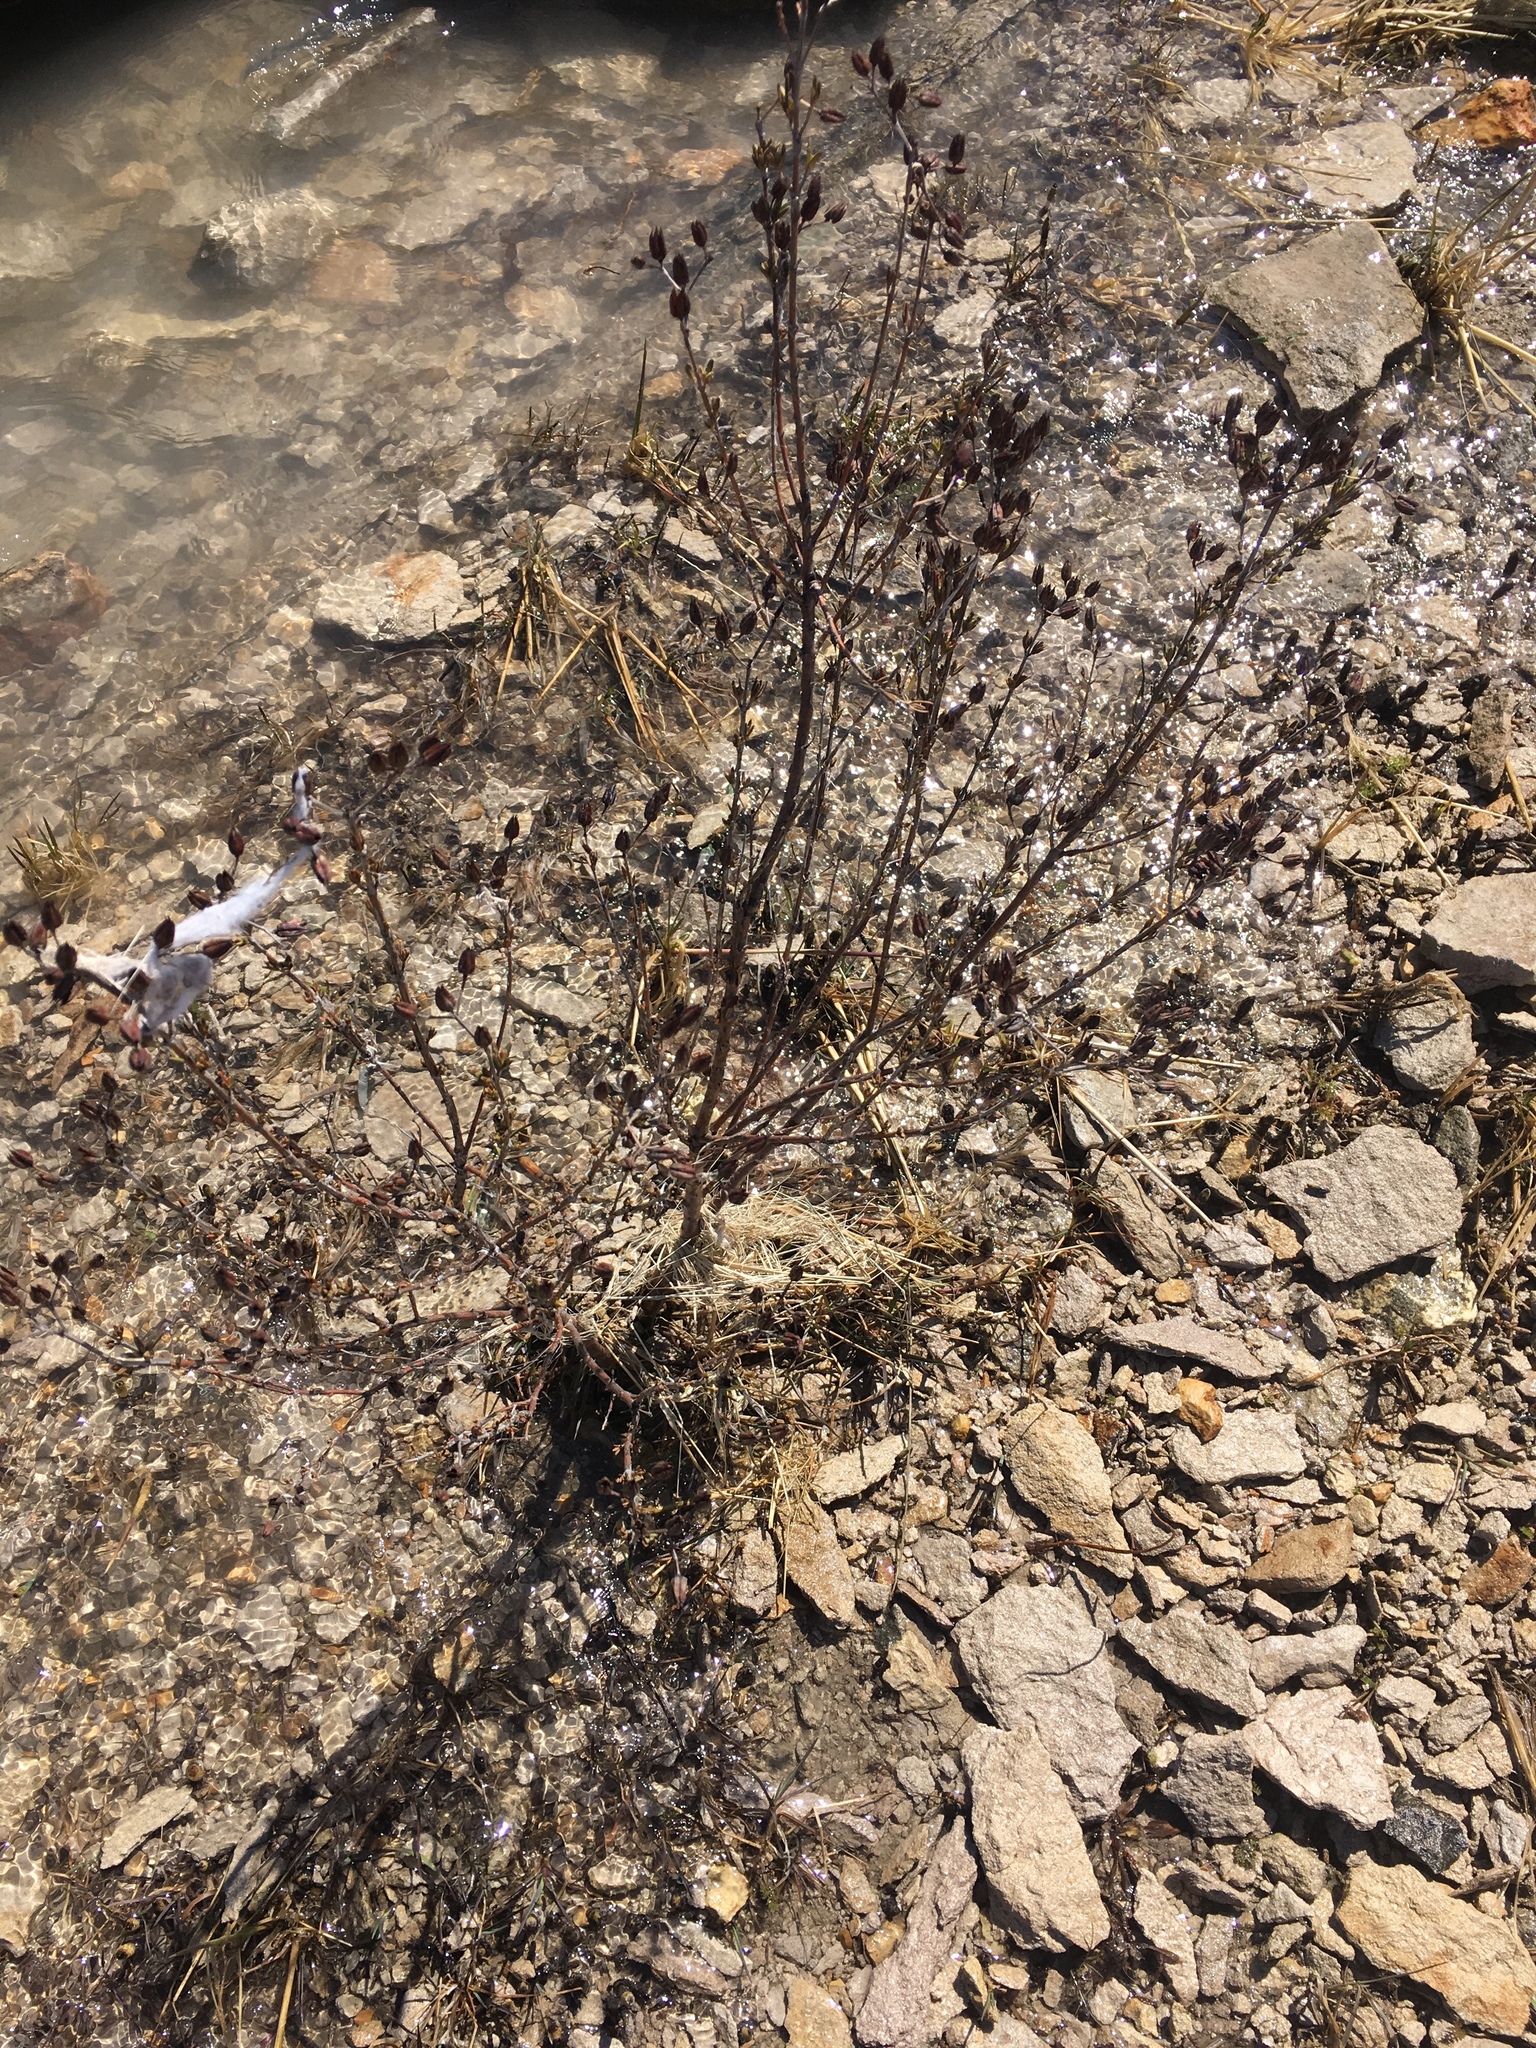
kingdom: Plantae
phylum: Tracheophyta
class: Magnoliopsida
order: Malpighiales
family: Hypericaceae
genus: Hypericum
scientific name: Hypericum kalmianum
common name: Kalm's st. john's-wort
